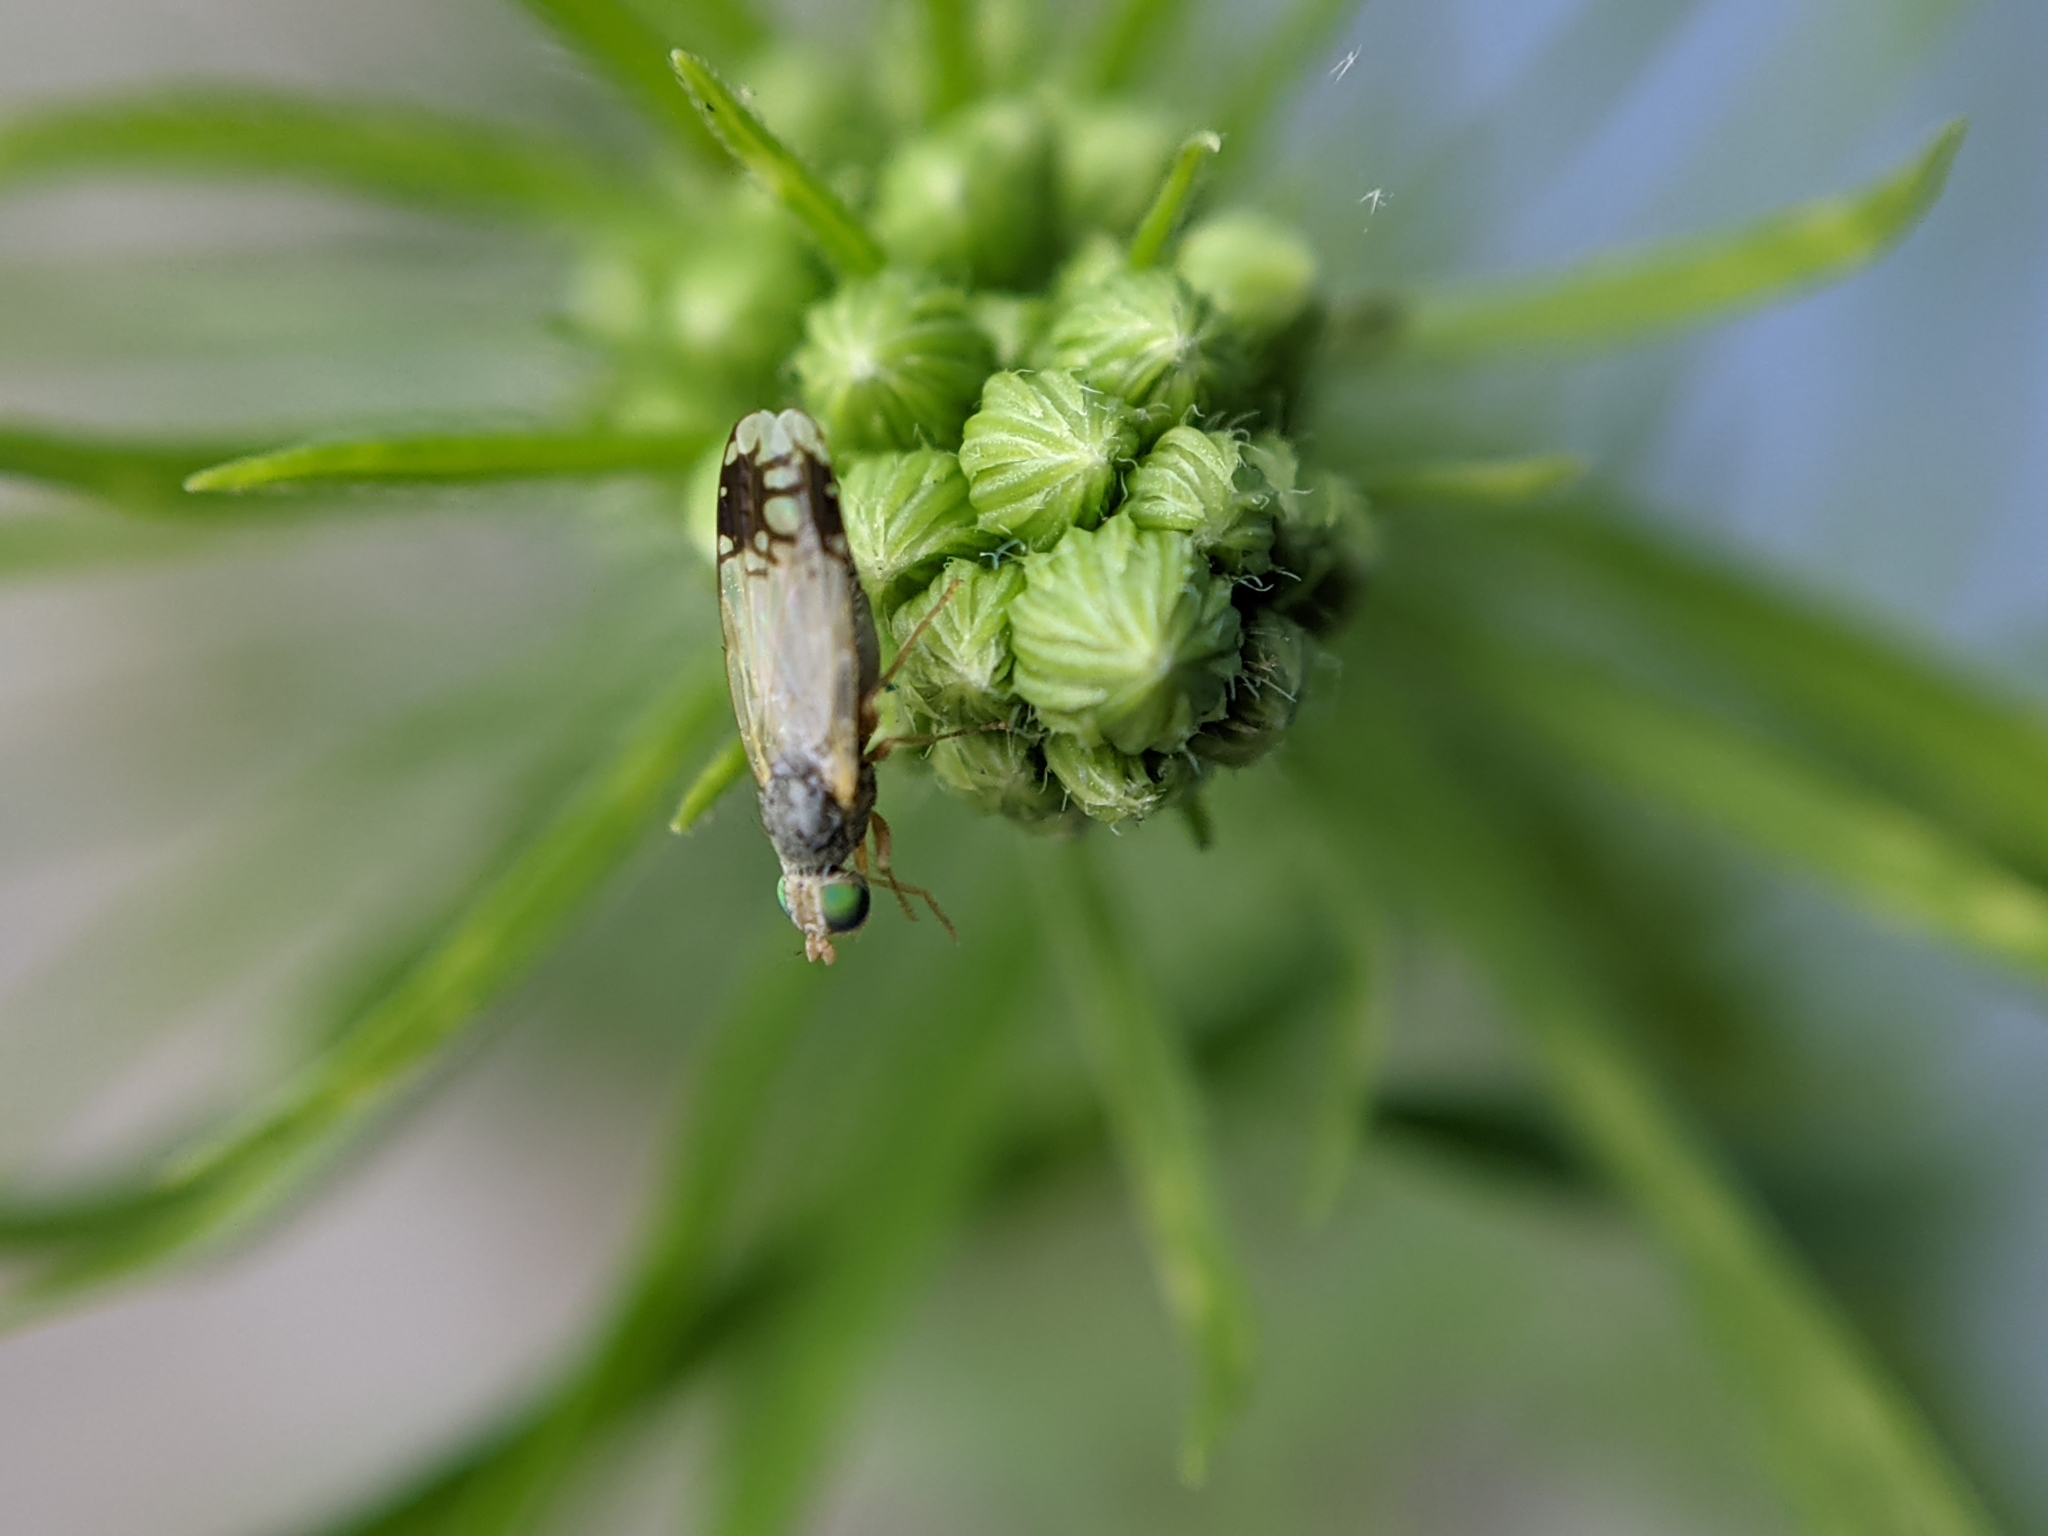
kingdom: Animalia
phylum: Arthropoda
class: Insecta
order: Diptera
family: Tephritidae
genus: Trupanea
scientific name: Trupanea stellata
